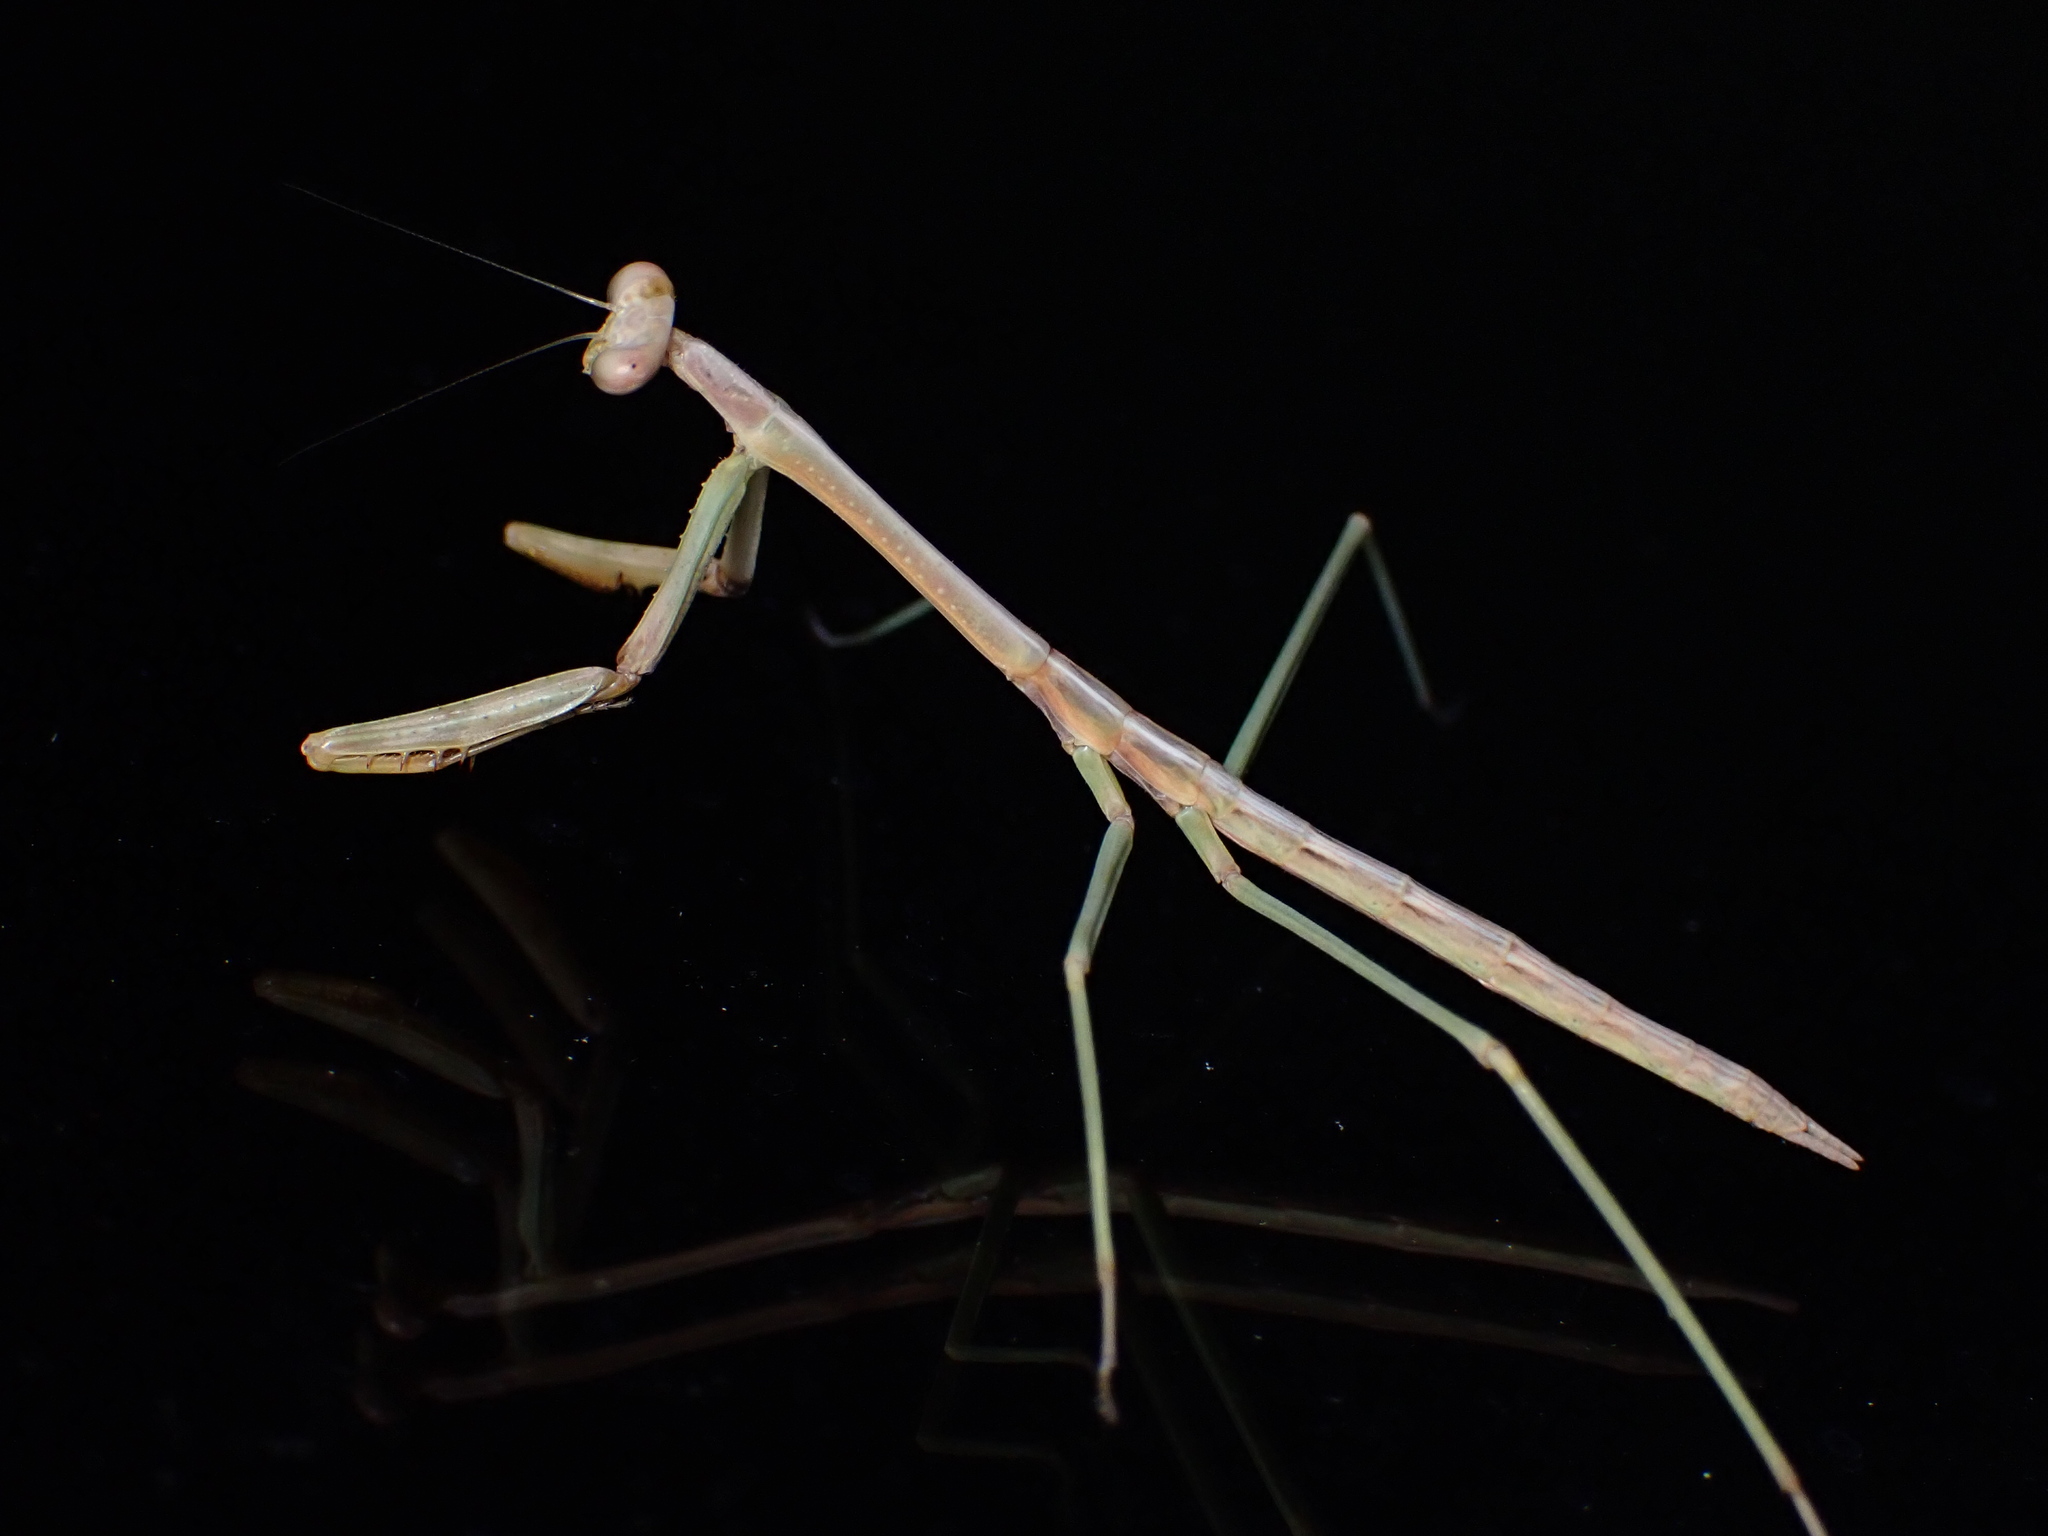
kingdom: Animalia
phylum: Arthropoda
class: Insecta
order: Mantodea
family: Mantidae
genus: Archimantis
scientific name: Archimantis latistyla
